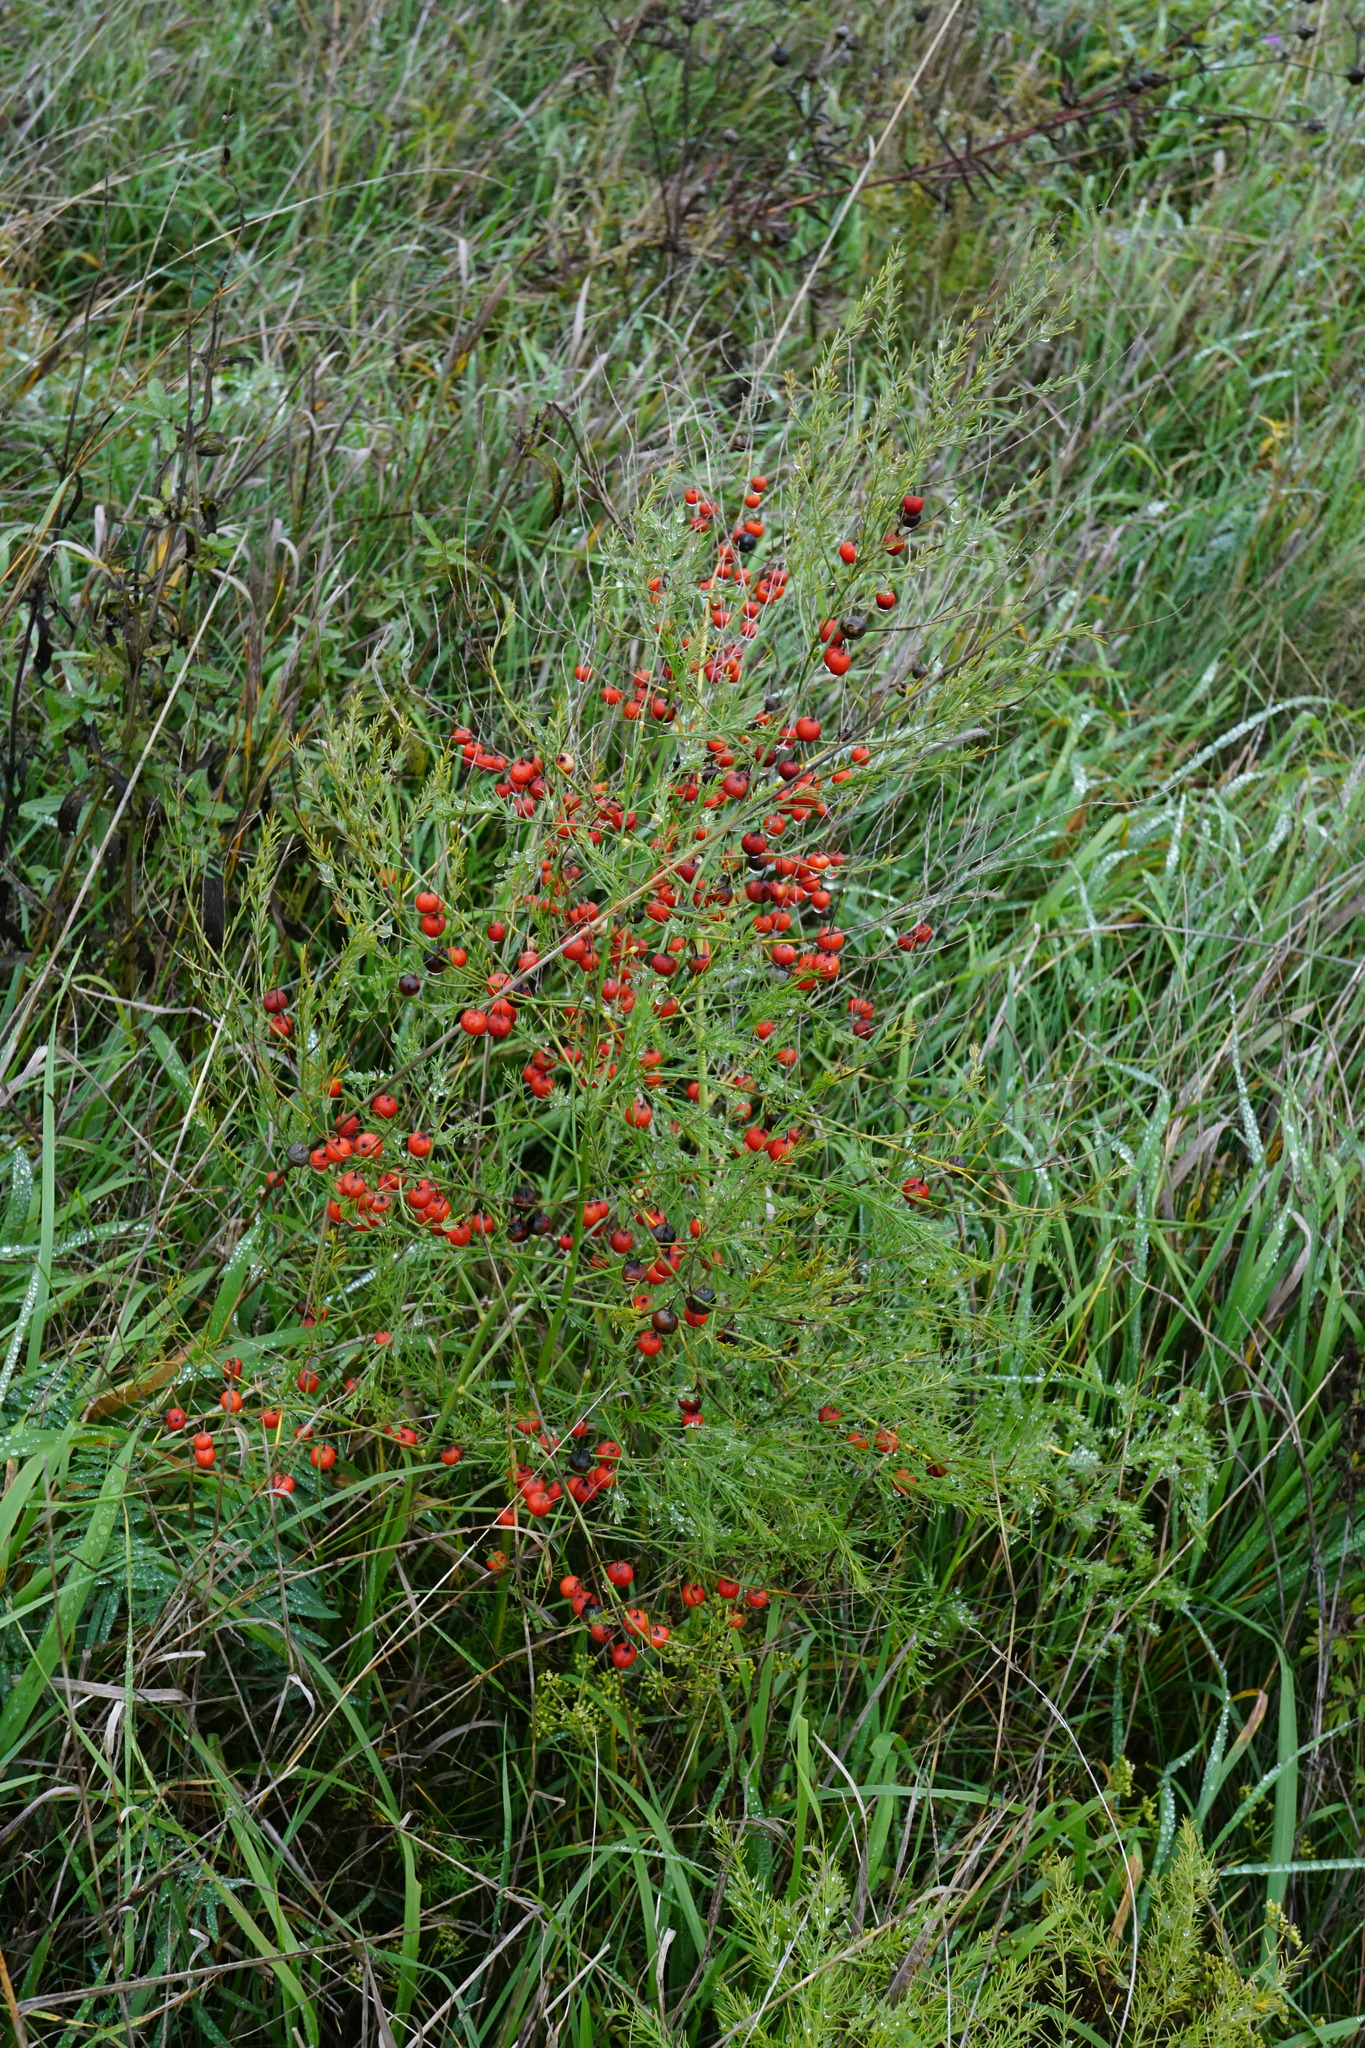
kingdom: Plantae
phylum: Tracheophyta
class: Liliopsida
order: Asparagales
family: Asparagaceae
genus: Asparagus
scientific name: Asparagus officinalis
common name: Garden asparagus
